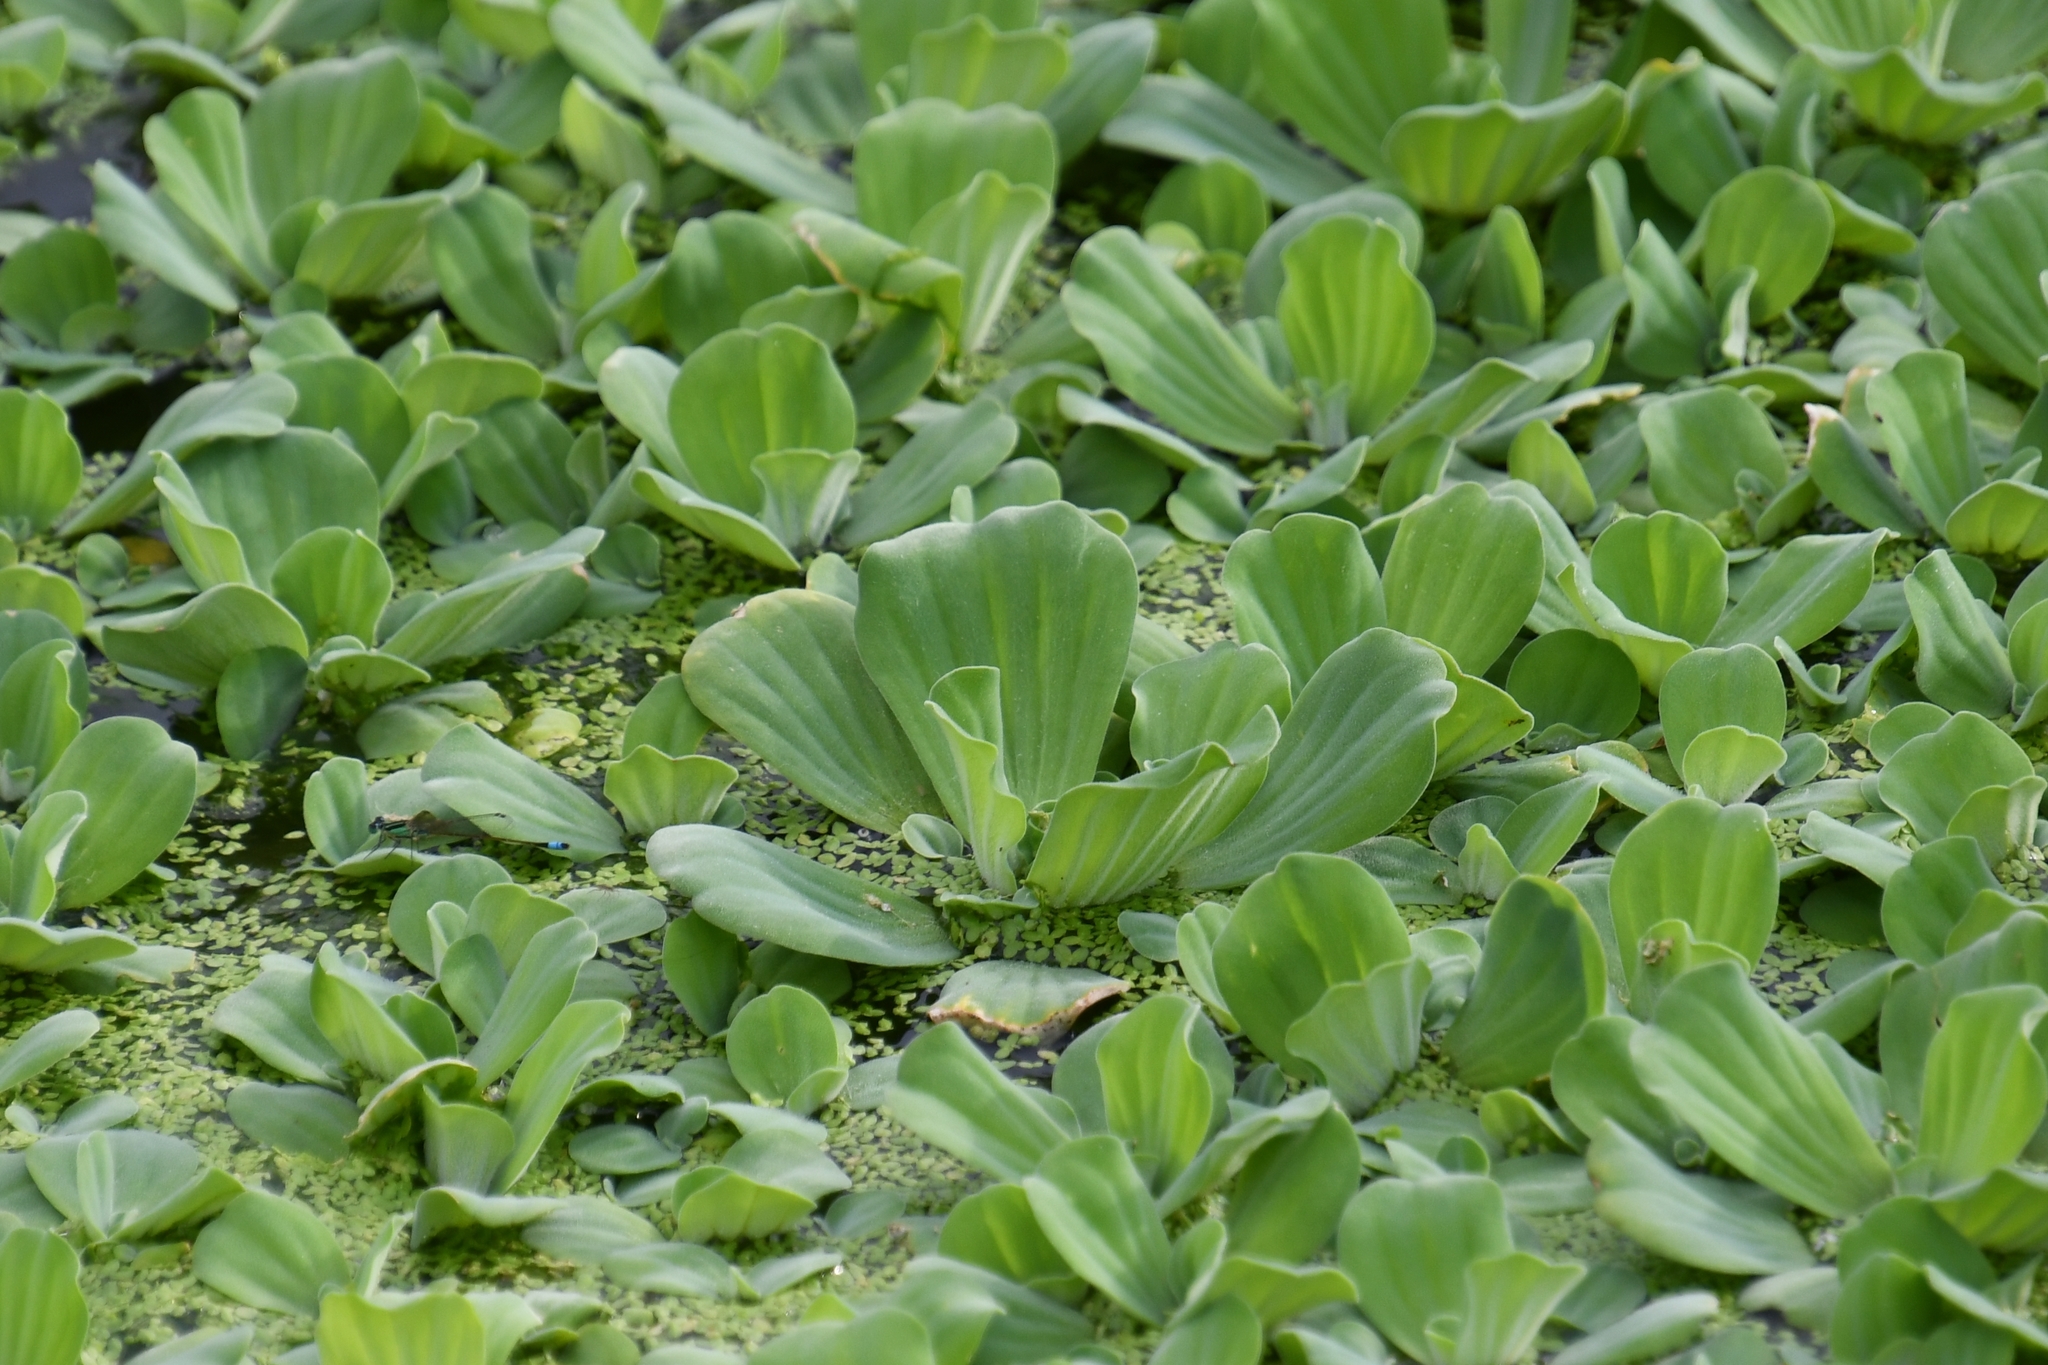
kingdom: Plantae
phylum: Tracheophyta
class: Liliopsida
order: Alismatales
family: Araceae
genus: Pistia
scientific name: Pistia stratiotes
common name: Water lettuce
